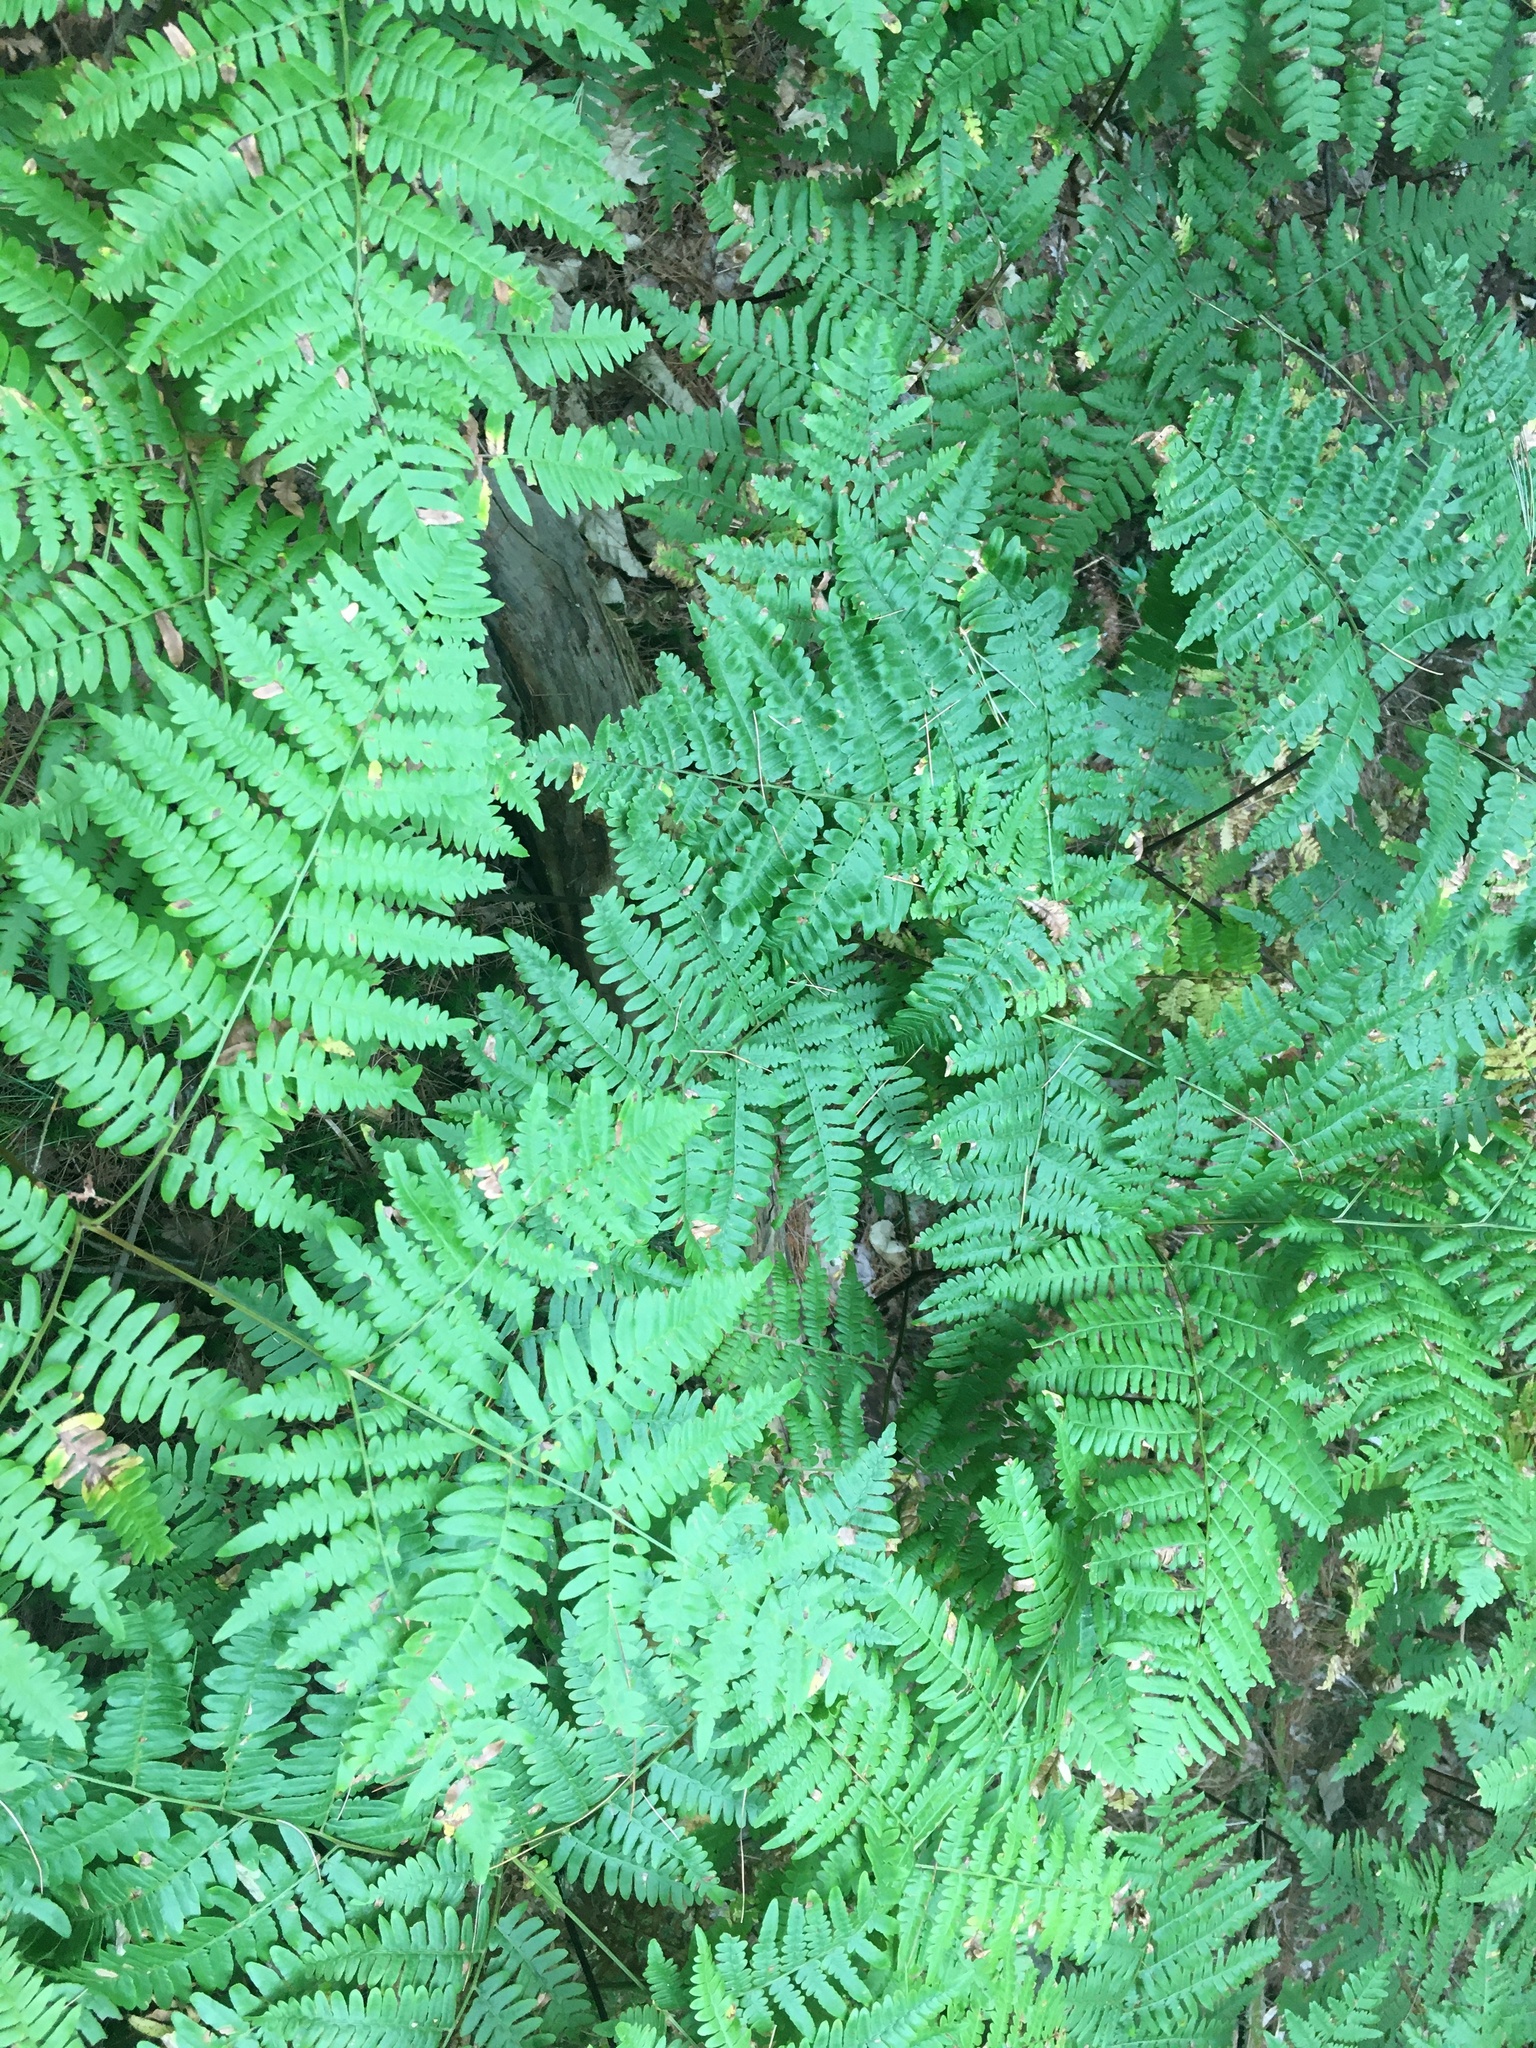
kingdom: Plantae
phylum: Tracheophyta
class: Polypodiopsida
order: Polypodiales
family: Dennstaedtiaceae
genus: Pteridium
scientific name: Pteridium aquilinum
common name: Bracken
